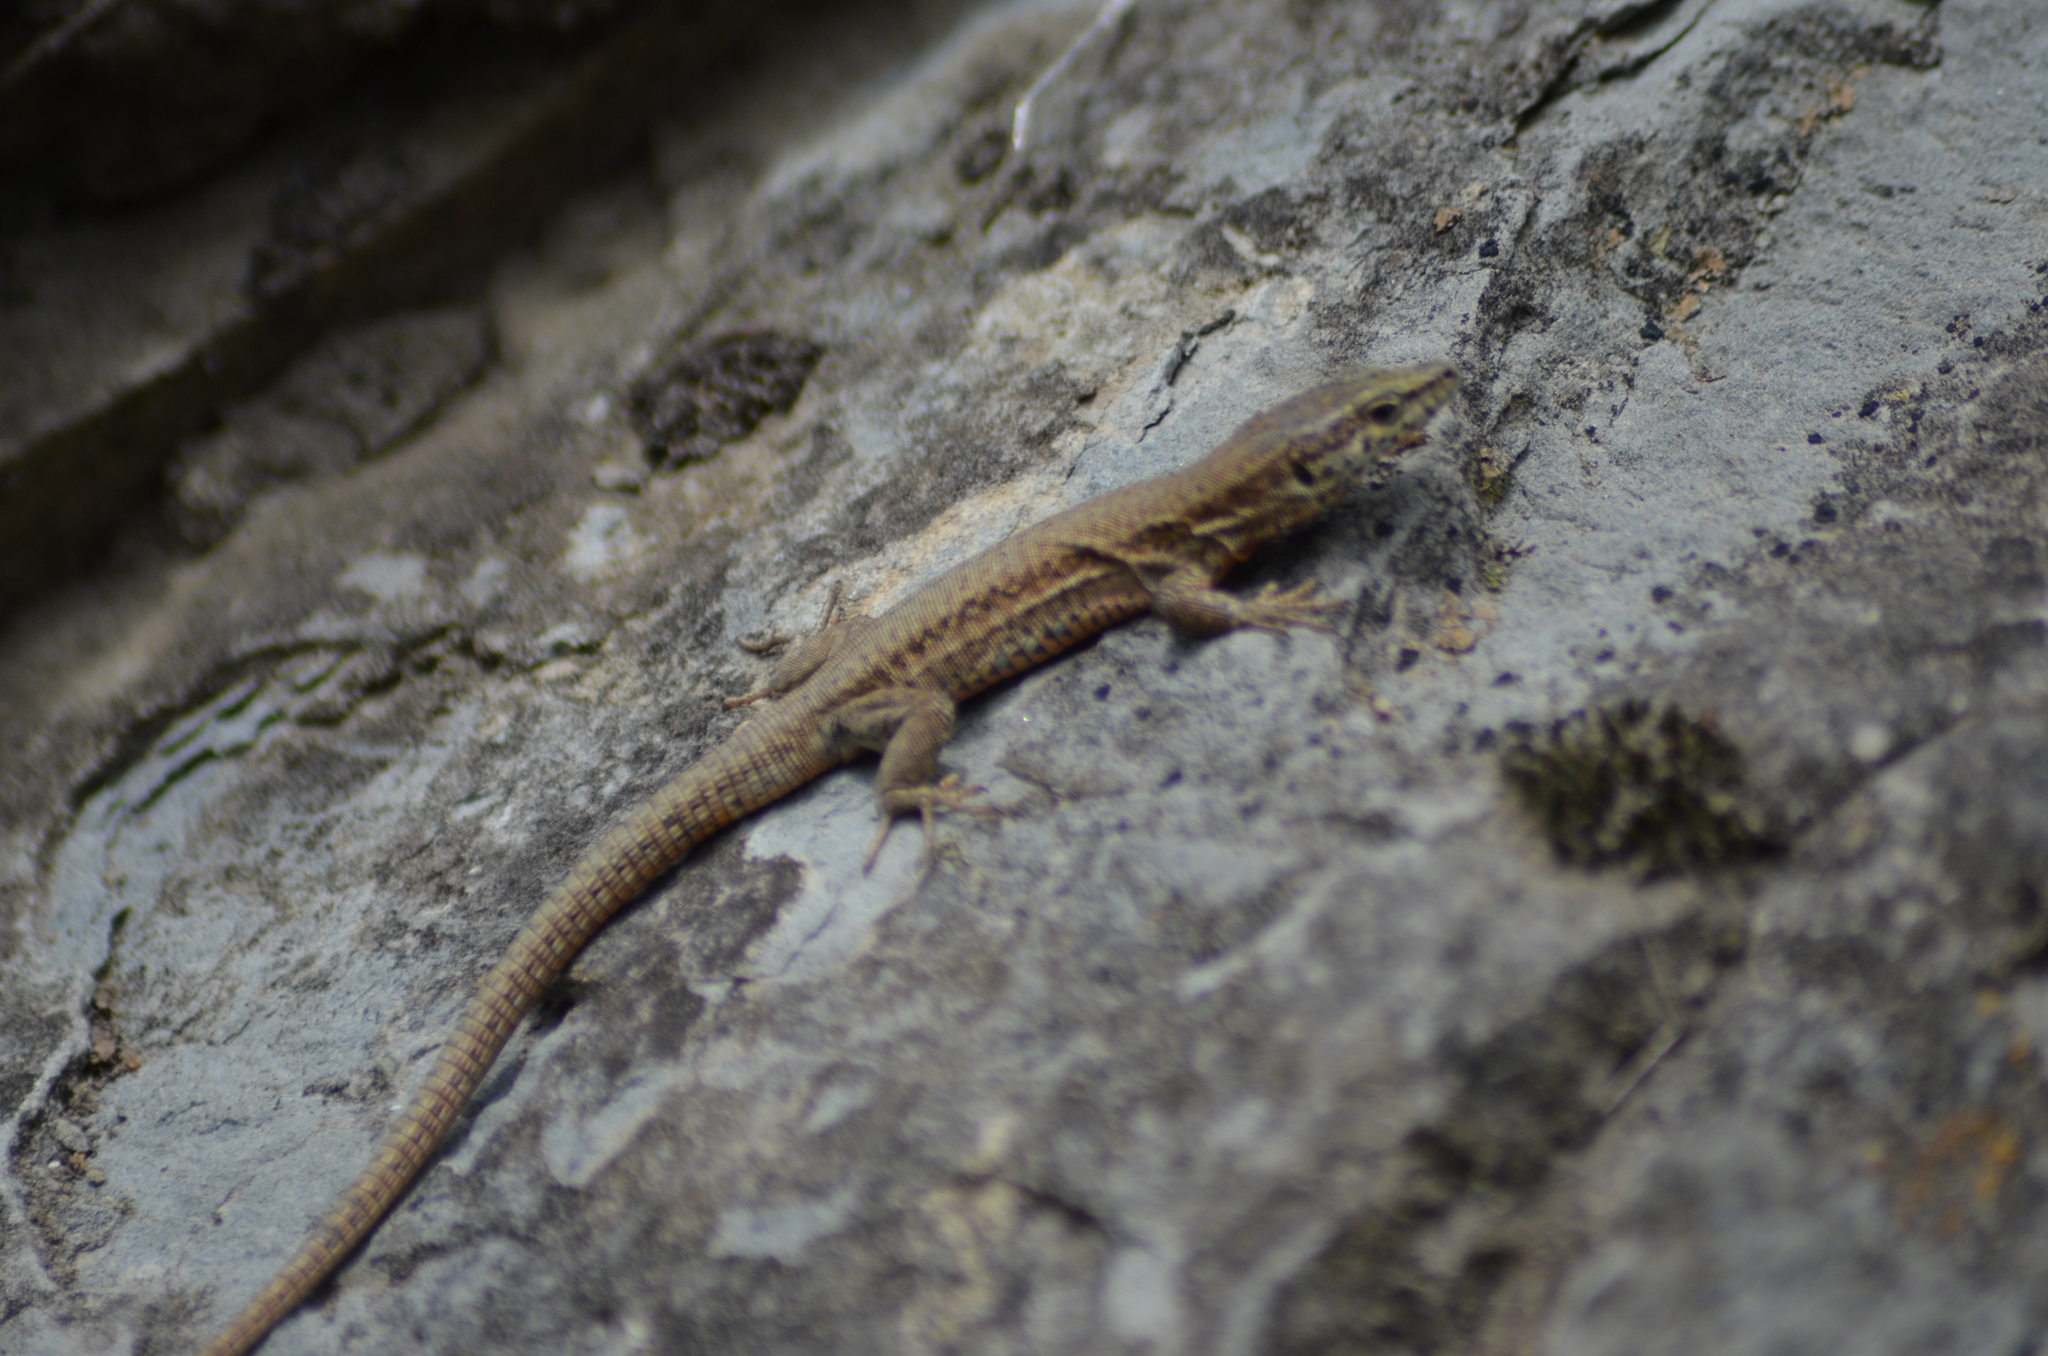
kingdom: Animalia
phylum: Chordata
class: Squamata
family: Lacertidae
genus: Podarcis
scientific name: Podarcis liolepis
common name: Catalonian wall lizard
